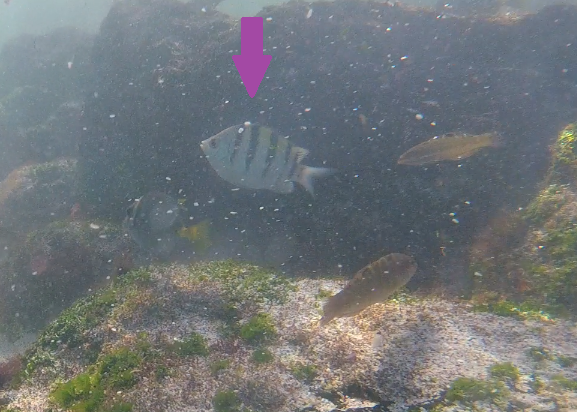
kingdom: Animalia
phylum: Chordata
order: Perciformes
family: Pomacentridae
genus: Abudefduf
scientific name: Abudefduf troschelii
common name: Panamic sergeant major
